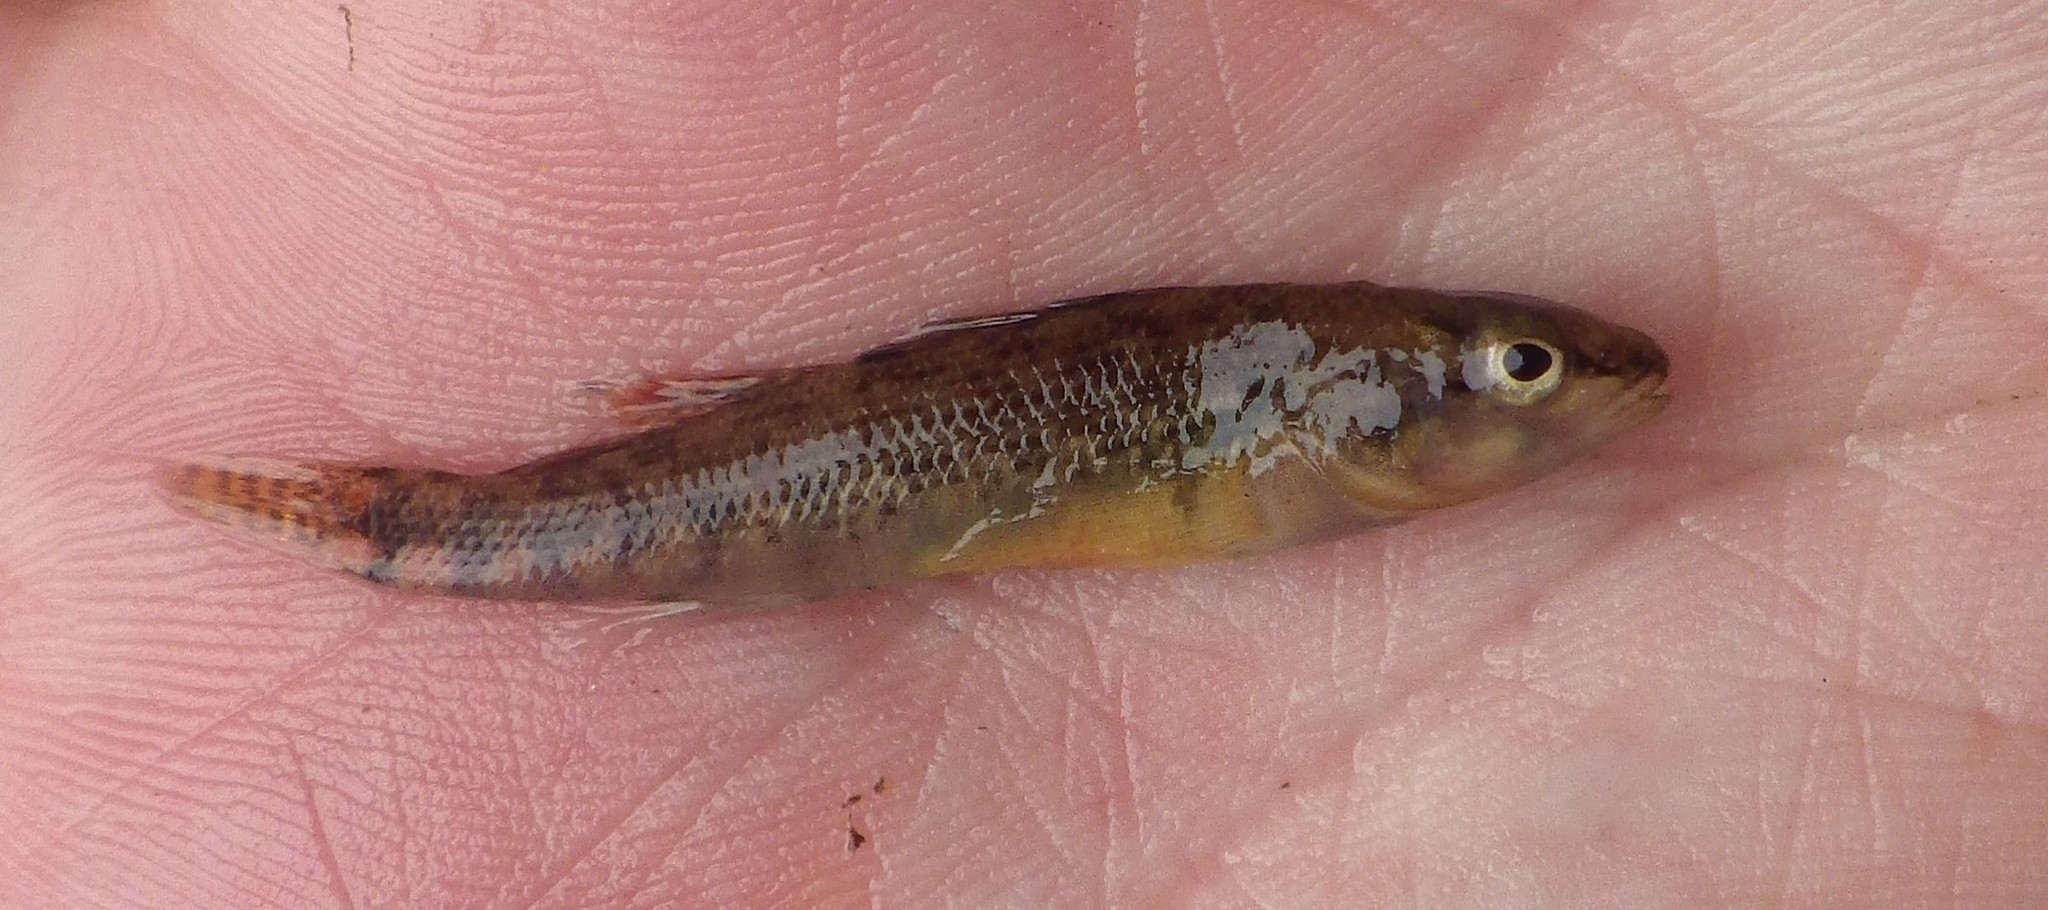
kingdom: Animalia
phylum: Chordata
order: Perciformes
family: Percidae
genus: Etheostoma
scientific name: Etheostoma spectabile
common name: Orangethroat darter
